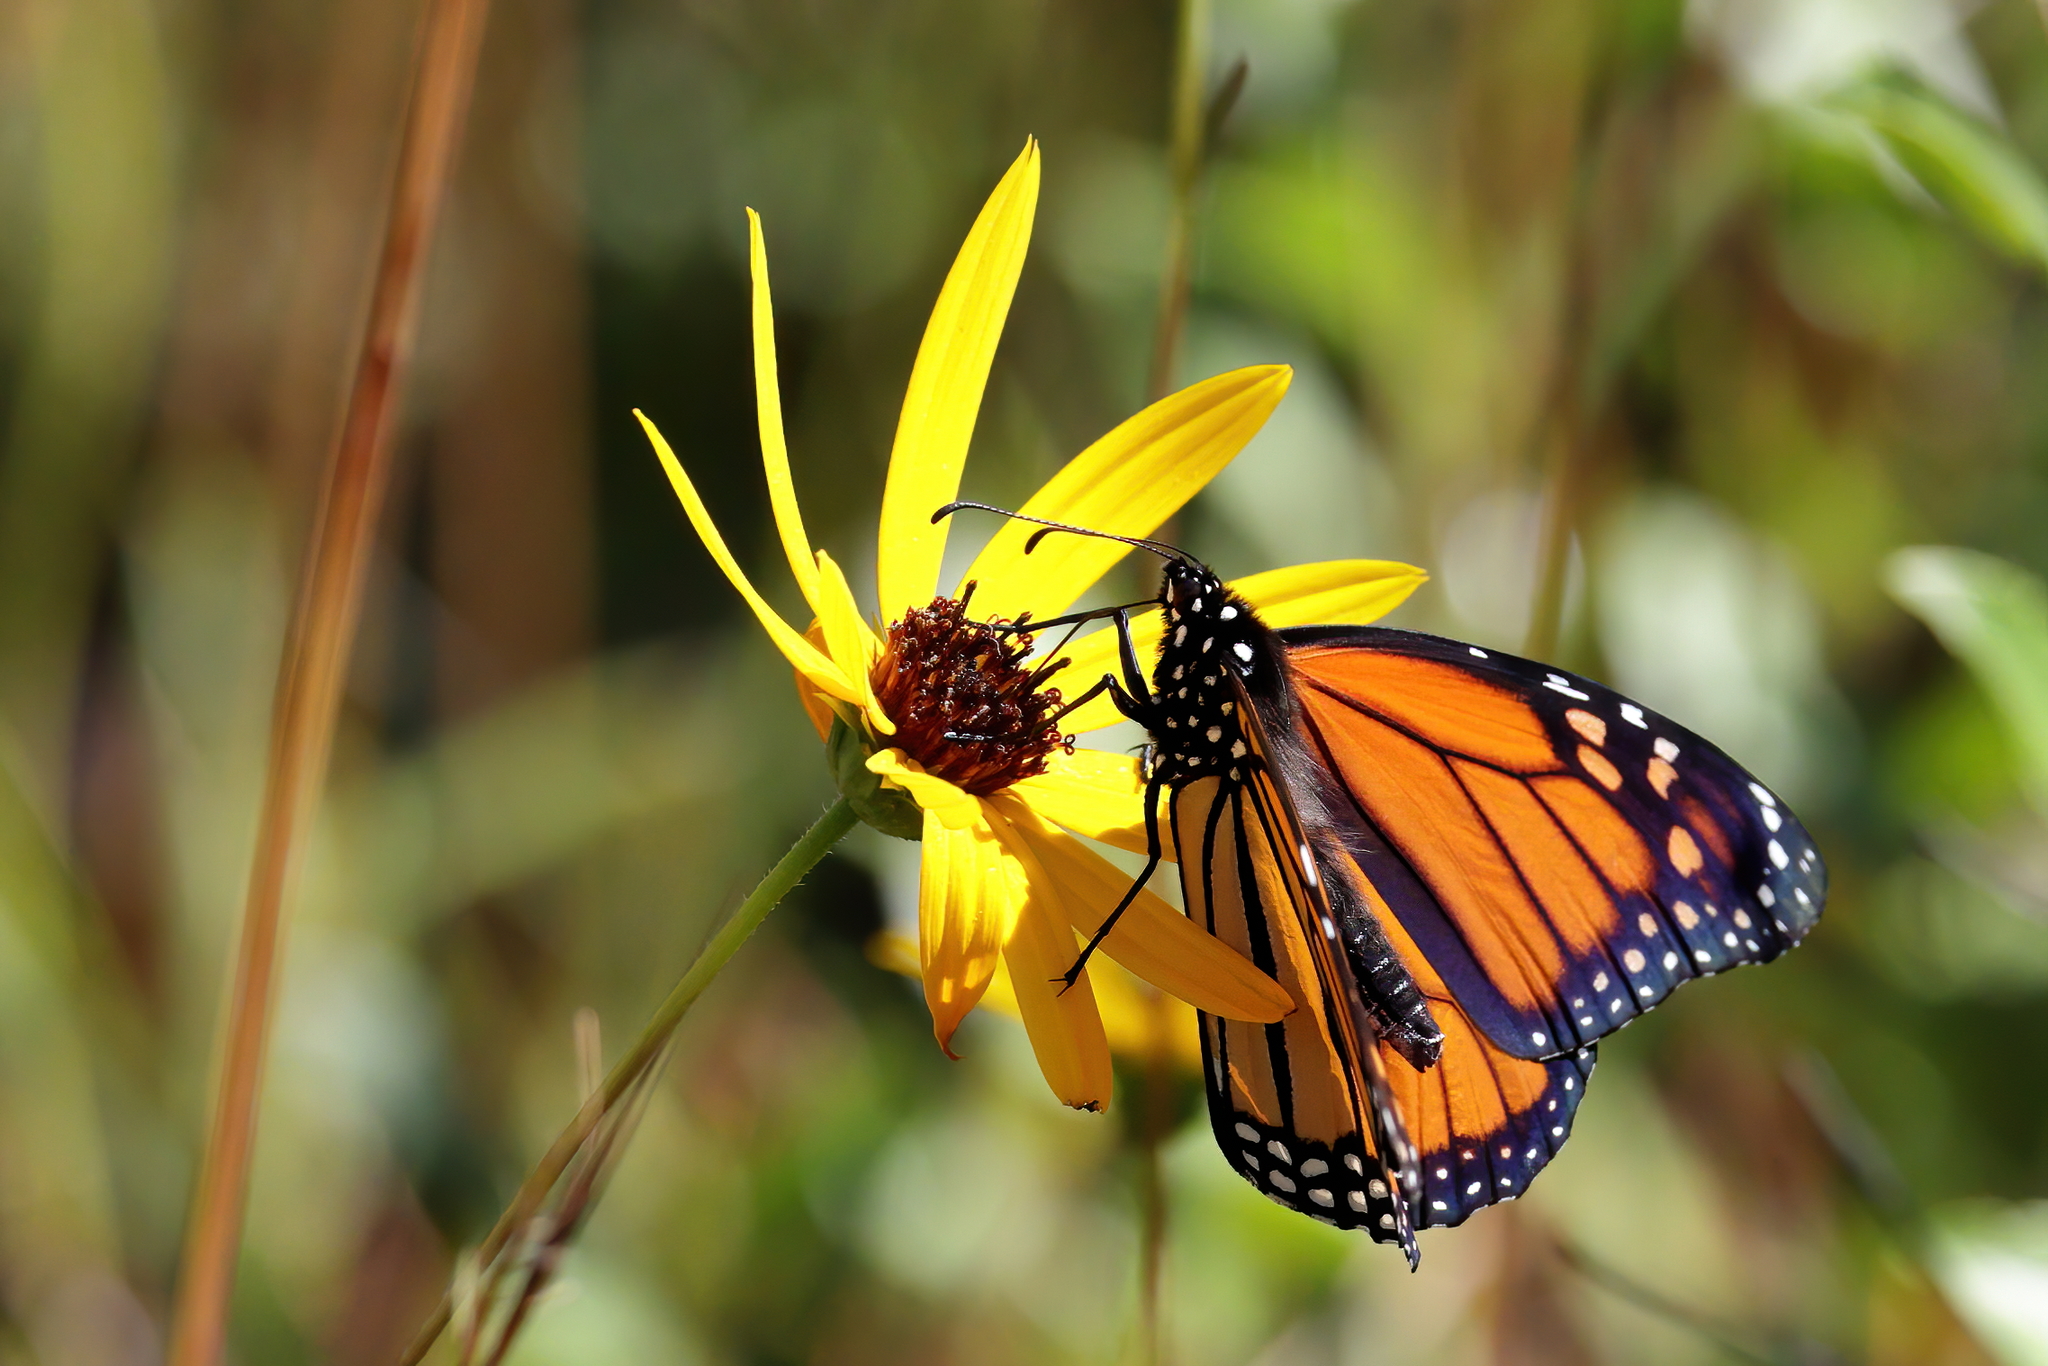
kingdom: Animalia
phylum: Arthropoda
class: Insecta
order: Lepidoptera
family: Nymphalidae
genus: Danaus
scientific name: Danaus plexippus
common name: Monarch
